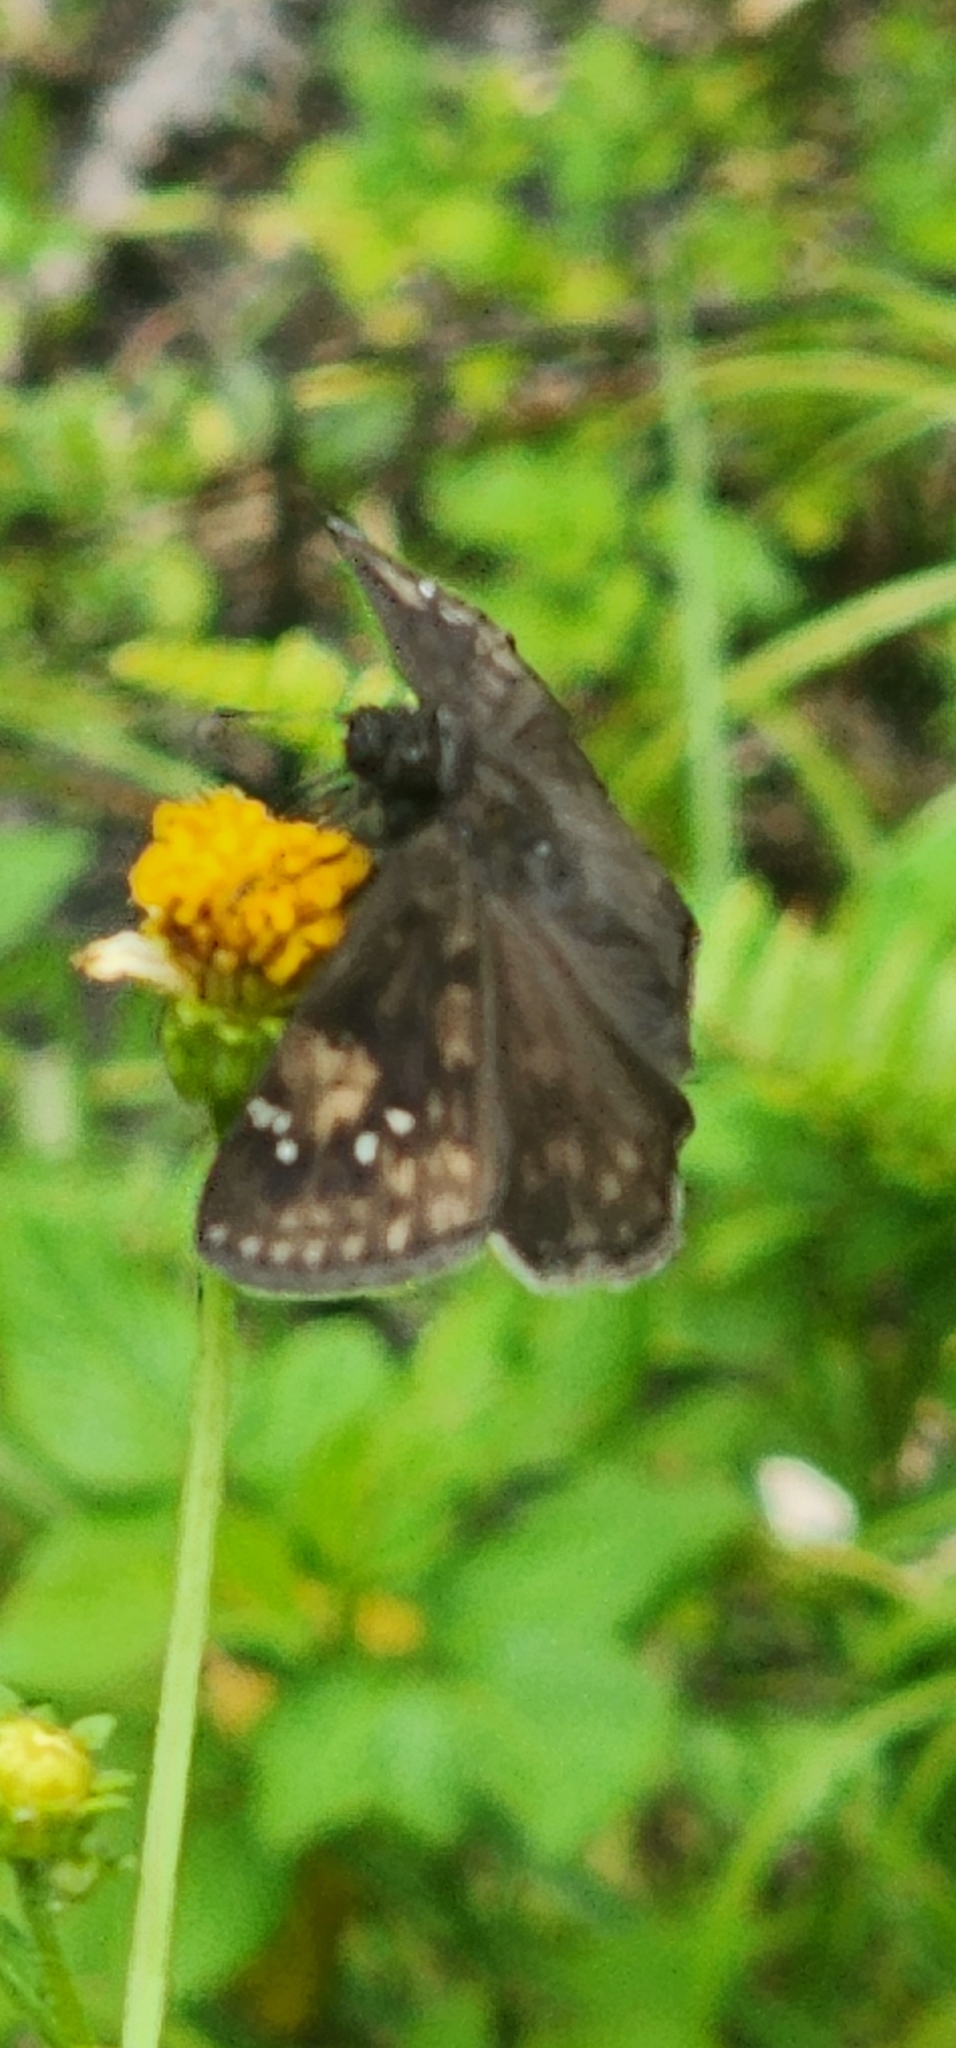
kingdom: Animalia
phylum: Arthropoda
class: Insecta
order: Lepidoptera
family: Hesperiidae
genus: Erynnis
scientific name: Erynnis zarucco
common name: Zarucco duskywing
